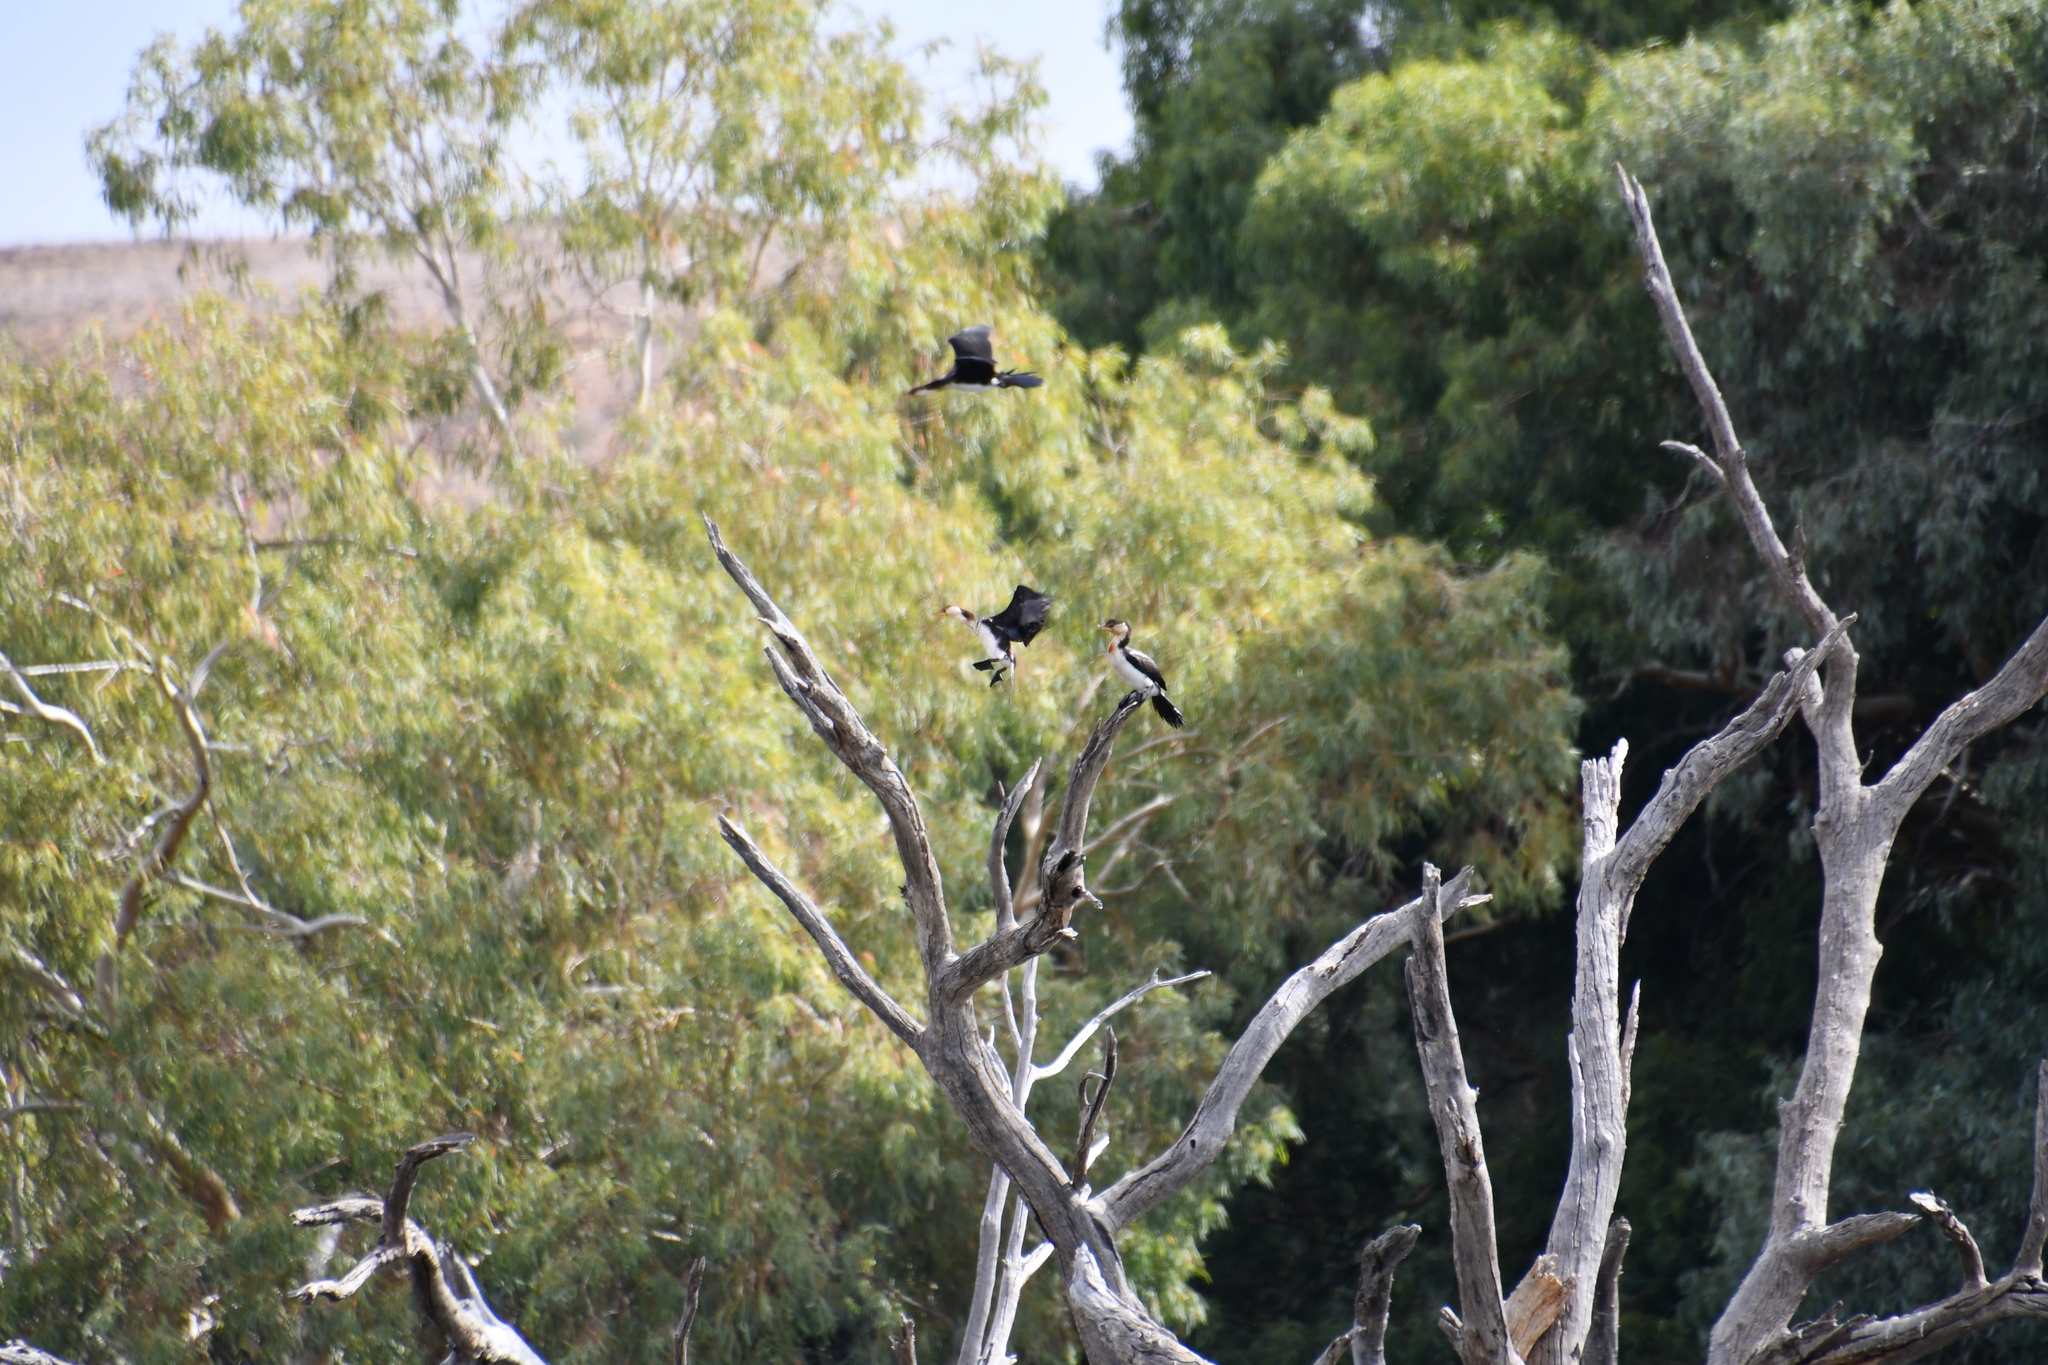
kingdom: Animalia
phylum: Chordata
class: Aves
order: Suliformes
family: Phalacrocoracidae
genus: Microcarbo
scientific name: Microcarbo melanoleucos
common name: Little pied cormorant
